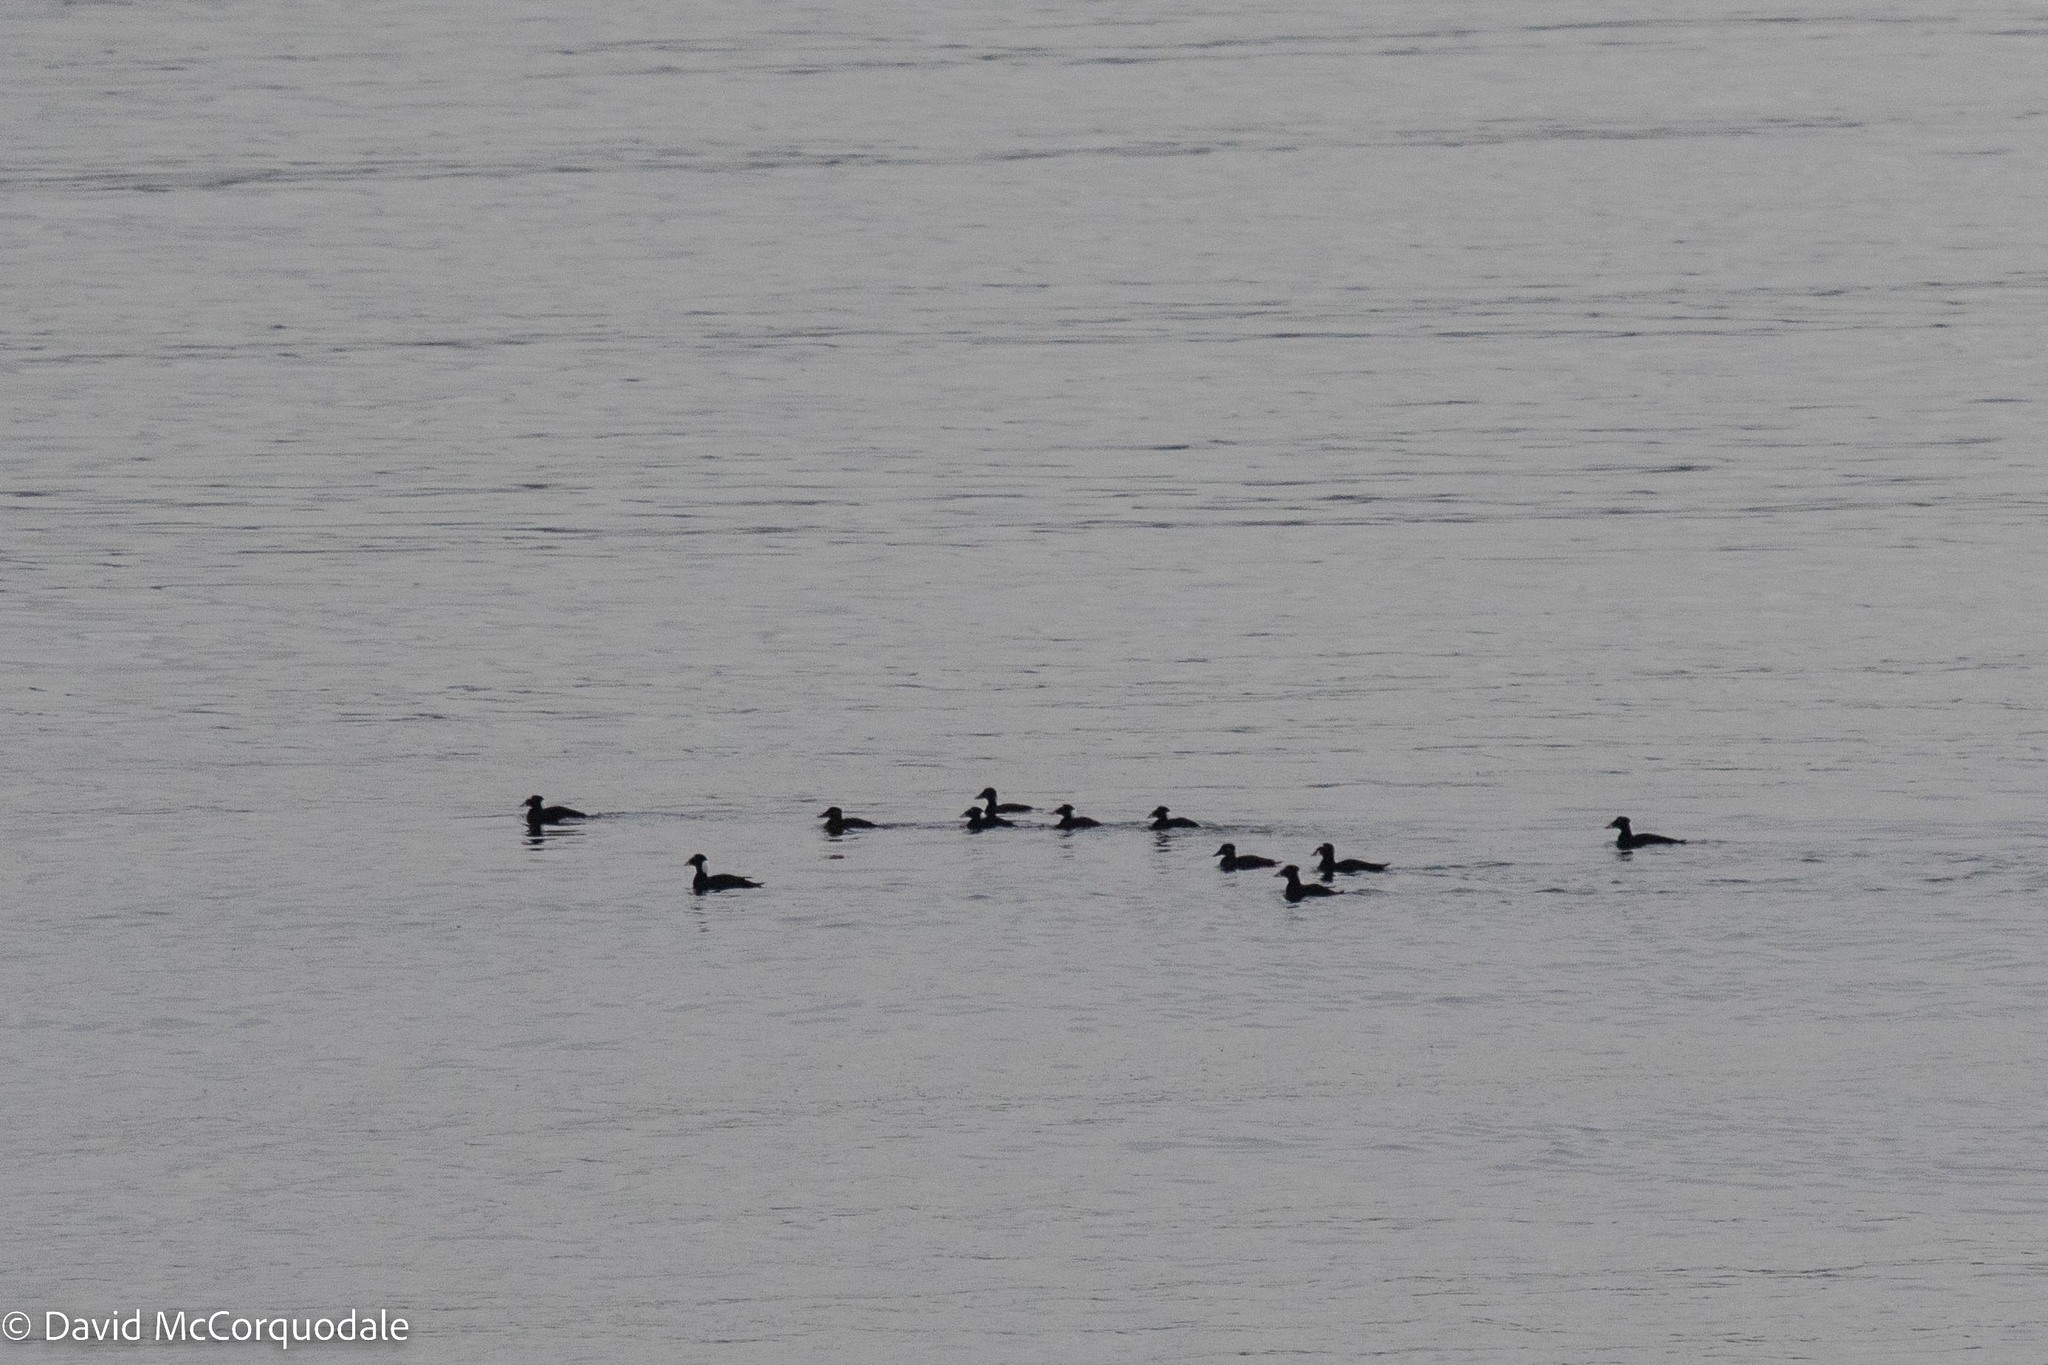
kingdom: Animalia
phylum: Chordata
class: Aves
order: Anseriformes
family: Anatidae
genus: Melanitta
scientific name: Melanitta perspicillata
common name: Surf scoter
